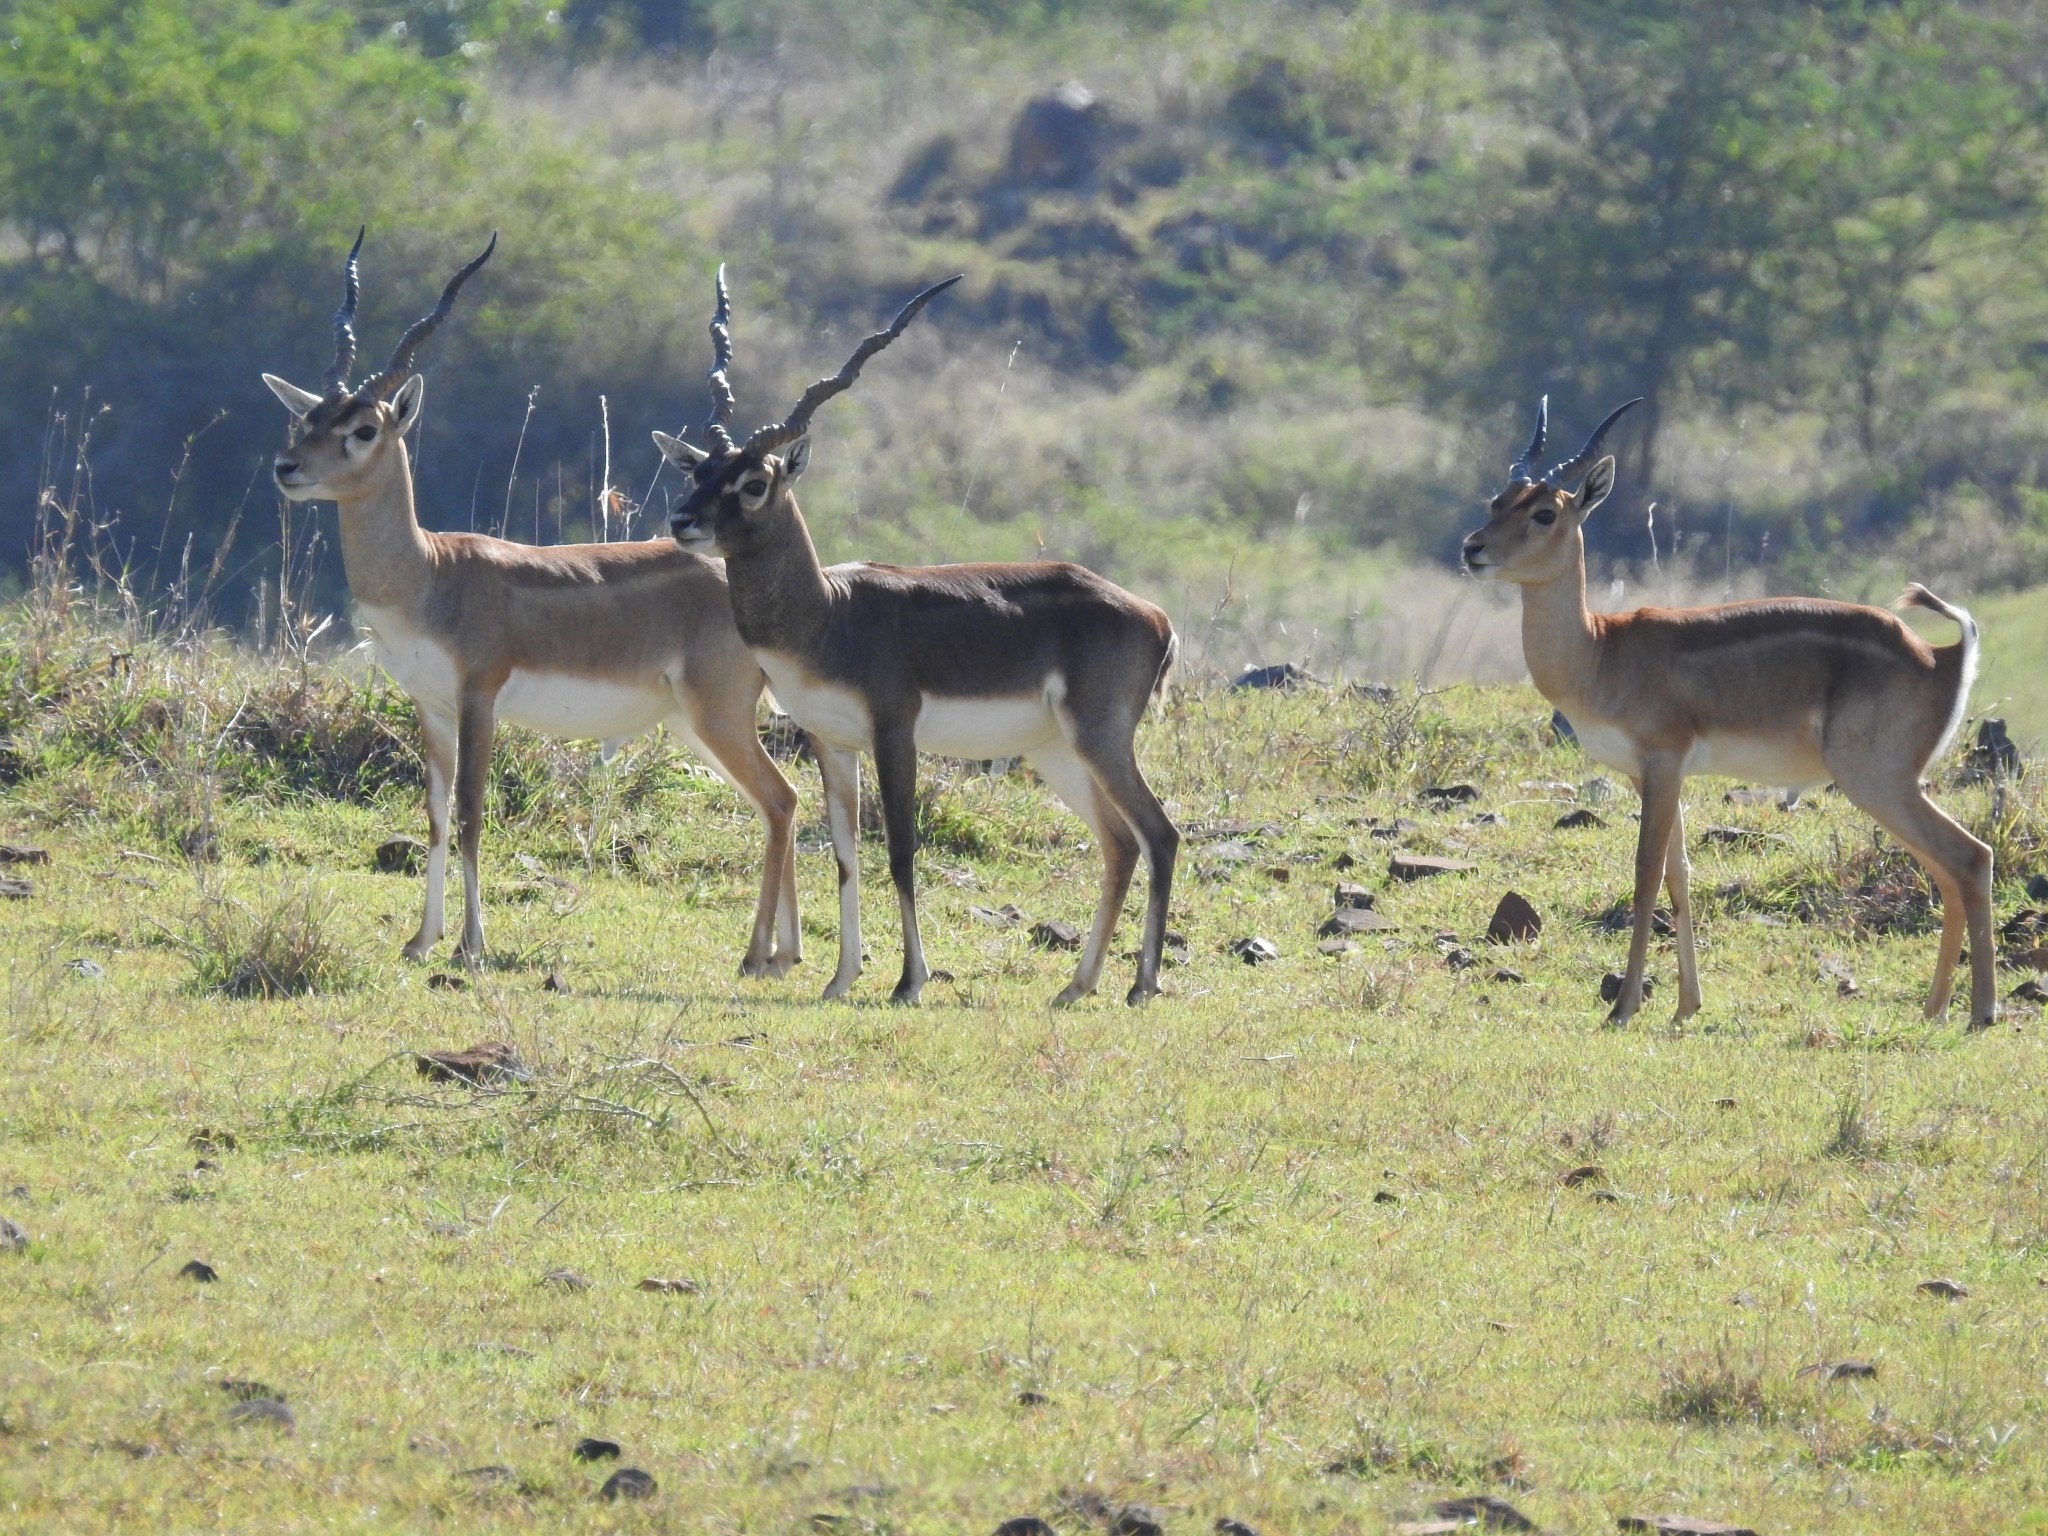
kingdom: Animalia
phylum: Chordata
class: Mammalia
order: Artiodactyla
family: Bovidae
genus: Antilope
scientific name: Antilope cervicapra
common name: Blackbuck
